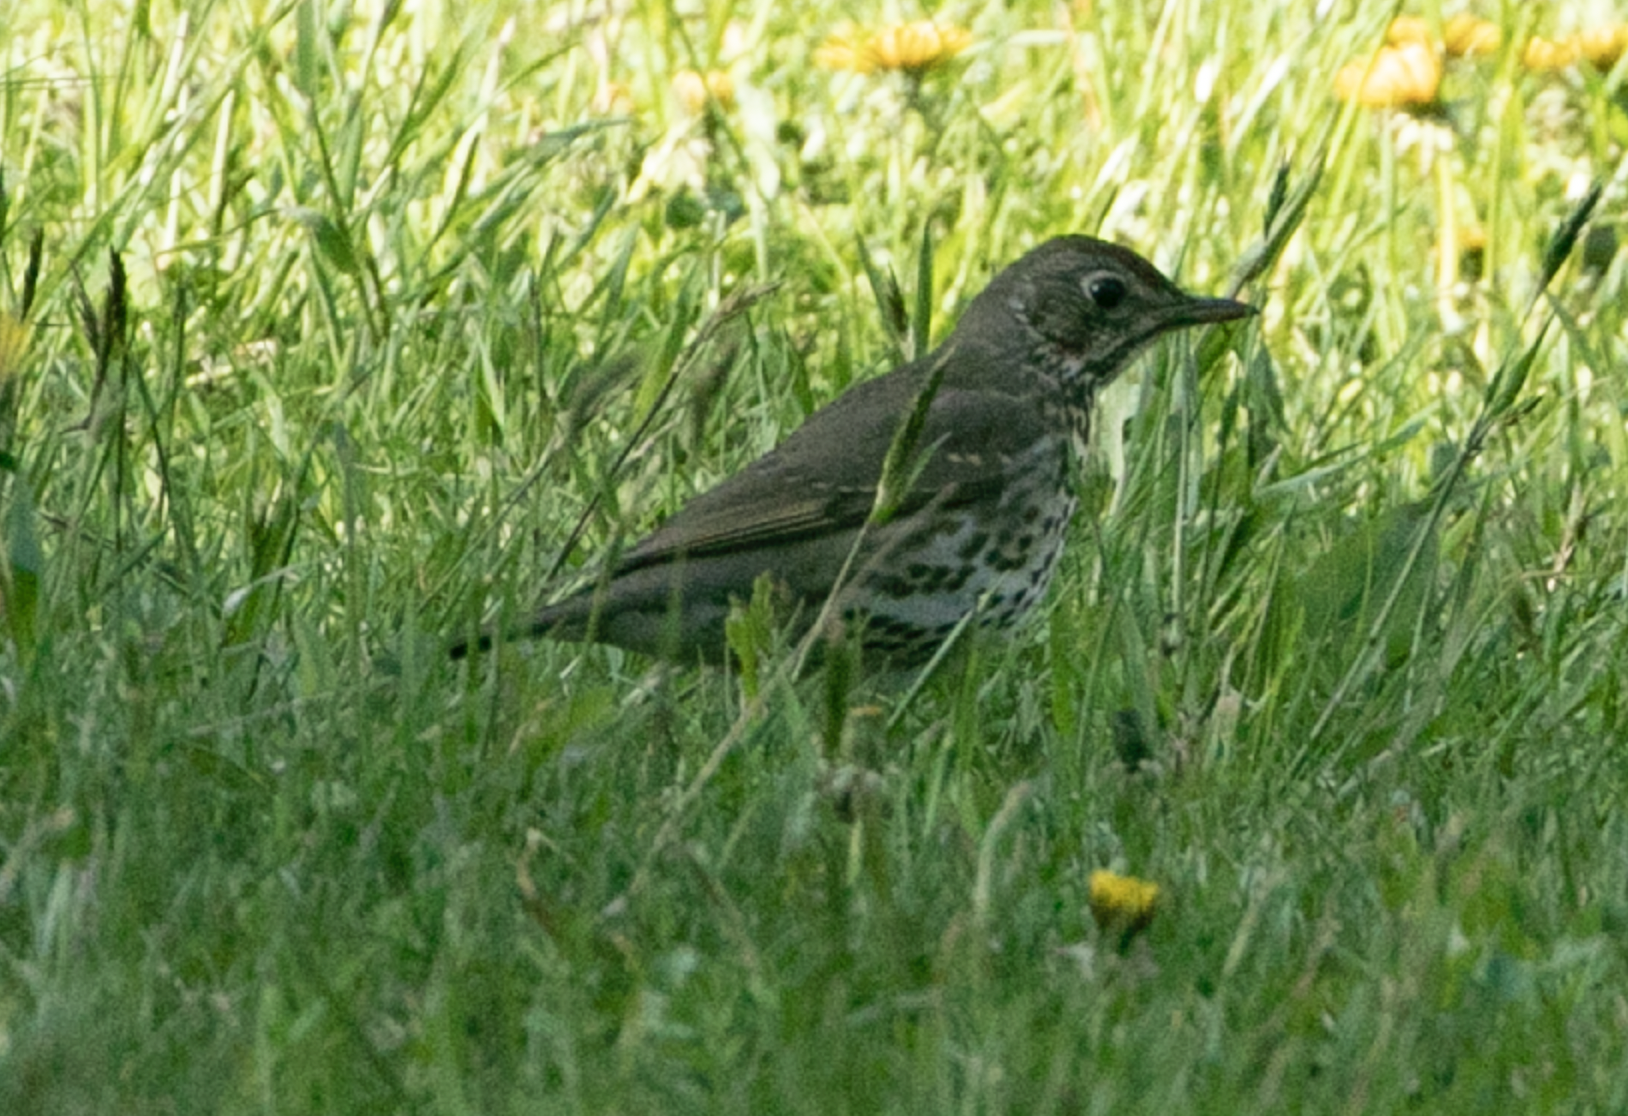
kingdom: Animalia
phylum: Chordata
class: Aves
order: Passeriformes
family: Turdidae
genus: Turdus
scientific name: Turdus philomelos
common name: Song thrush
